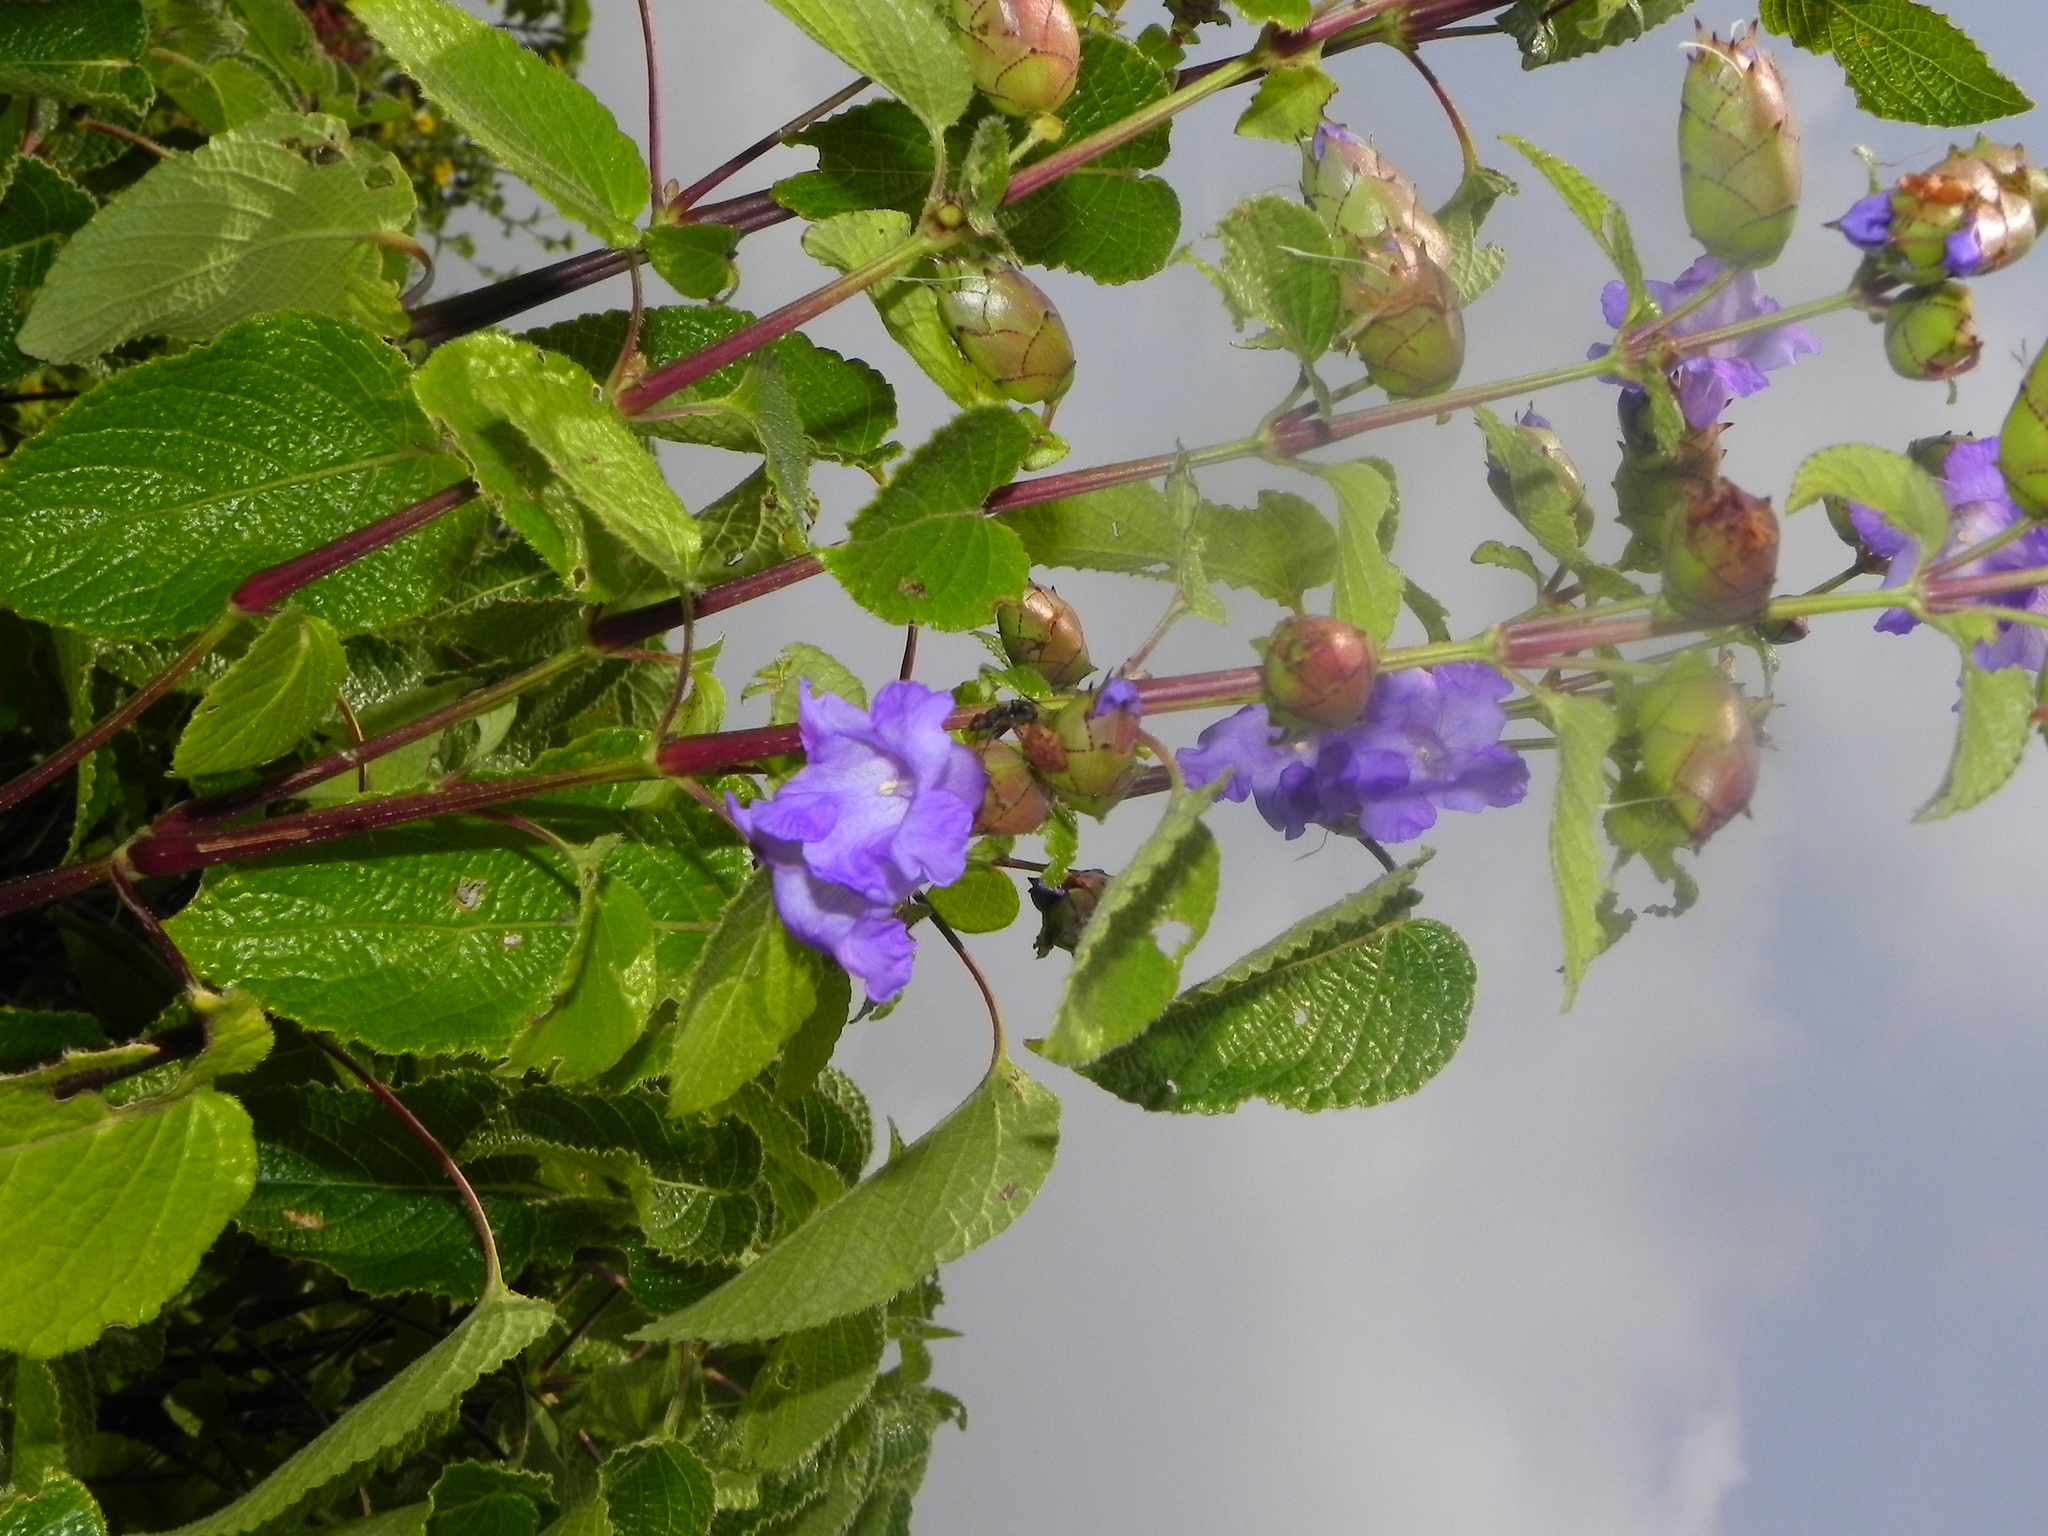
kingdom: Plantae
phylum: Tracheophyta
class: Magnoliopsida
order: Lamiales
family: Acanthaceae
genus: Strobilanthes
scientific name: Strobilanthes reticulata
